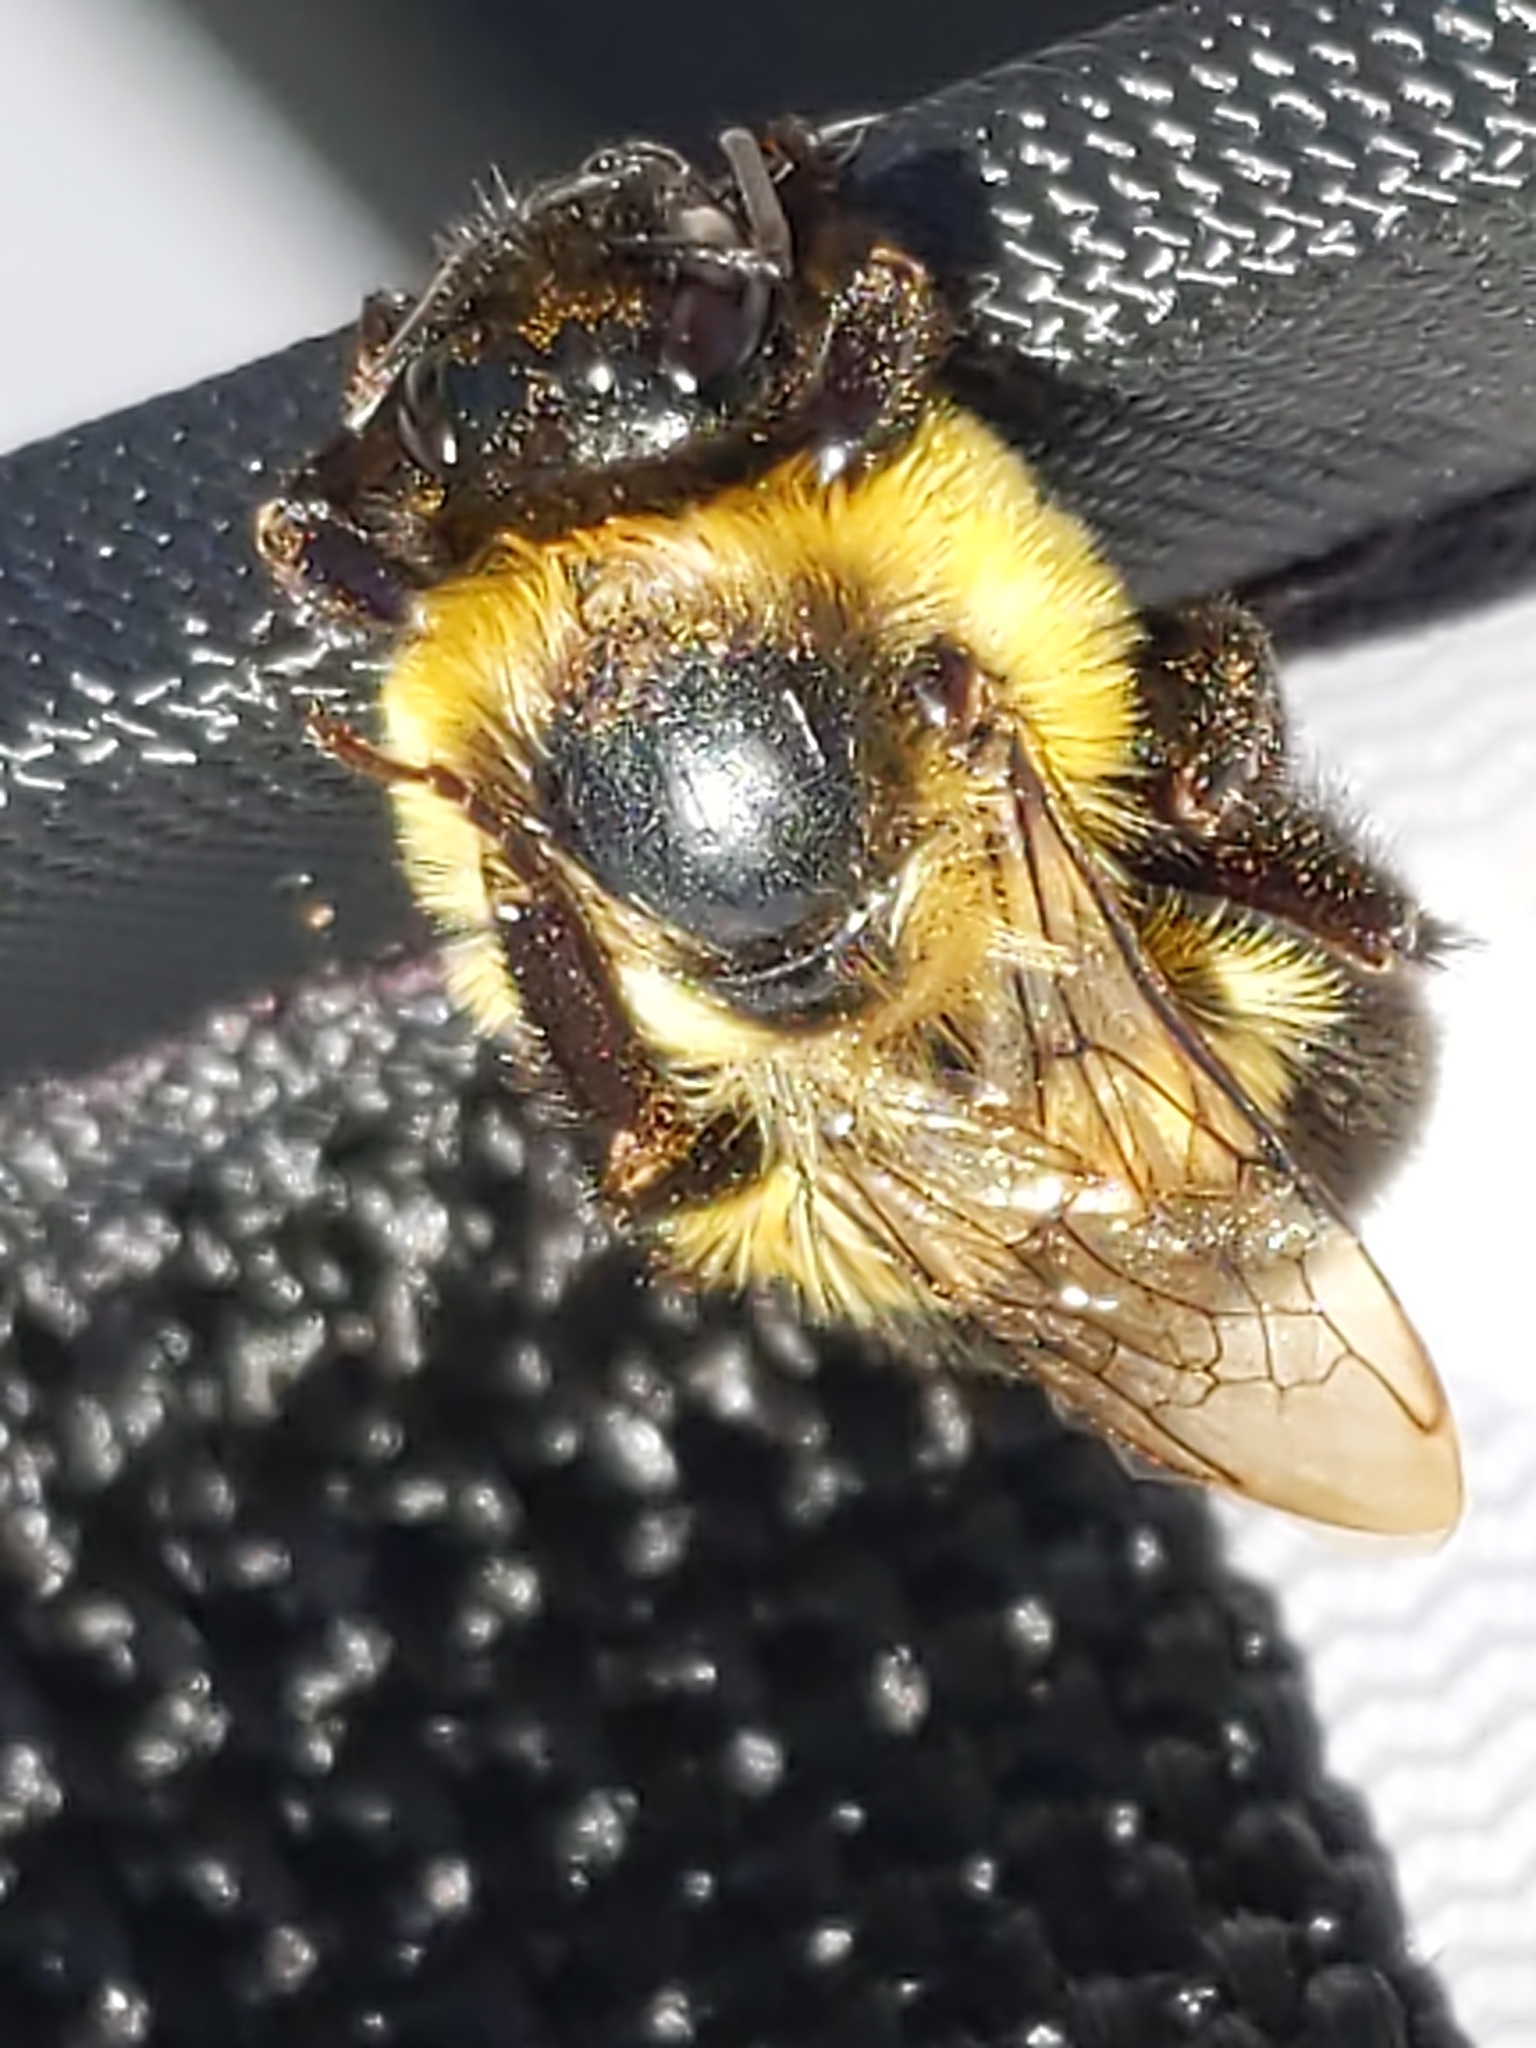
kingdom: Animalia
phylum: Arthropoda
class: Insecta
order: Hymenoptera
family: Apidae
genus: Bombus
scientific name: Bombus impatiens
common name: Common eastern bumble bee
